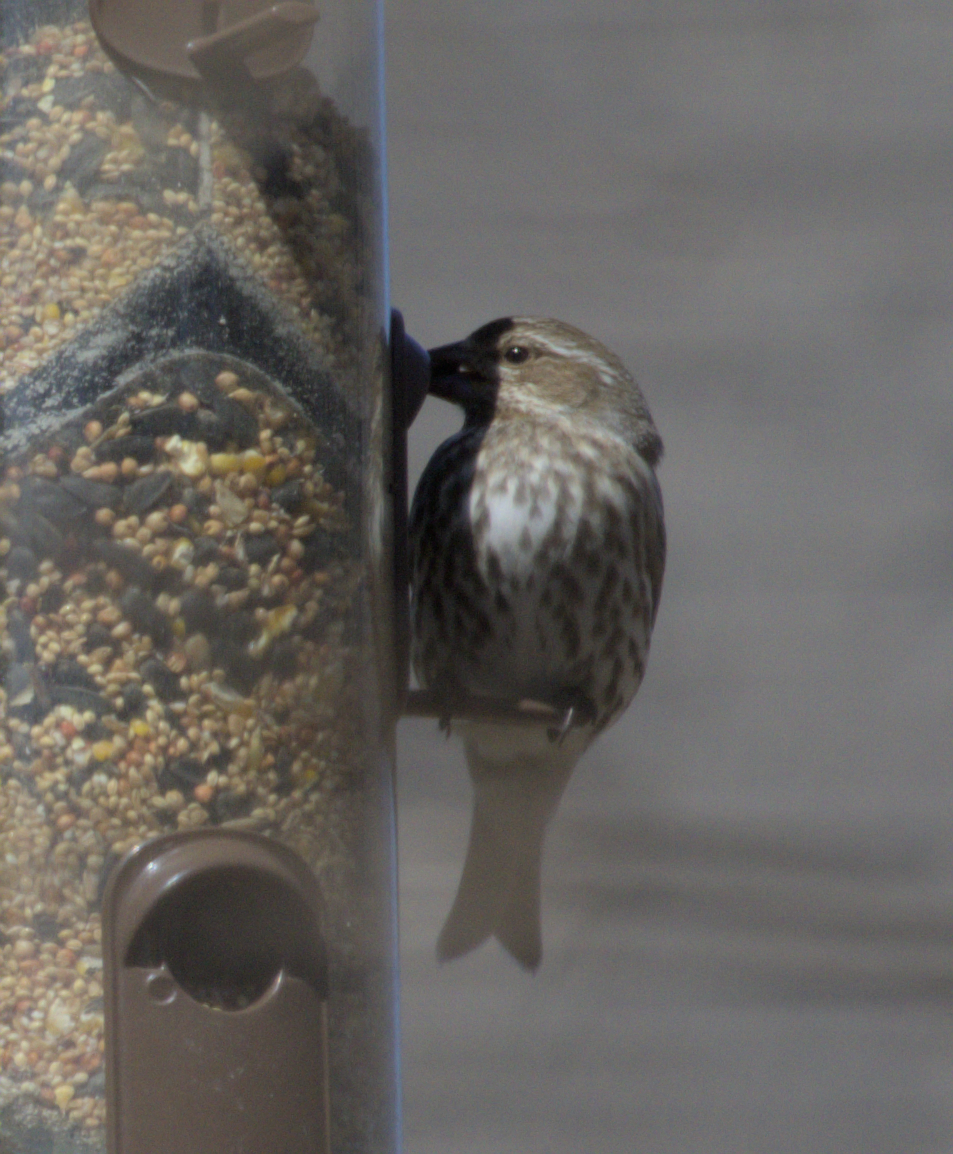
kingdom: Animalia
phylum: Chordata
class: Aves
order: Passeriformes
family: Fringillidae
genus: Haemorhous
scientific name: Haemorhous purpureus
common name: Purple finch
